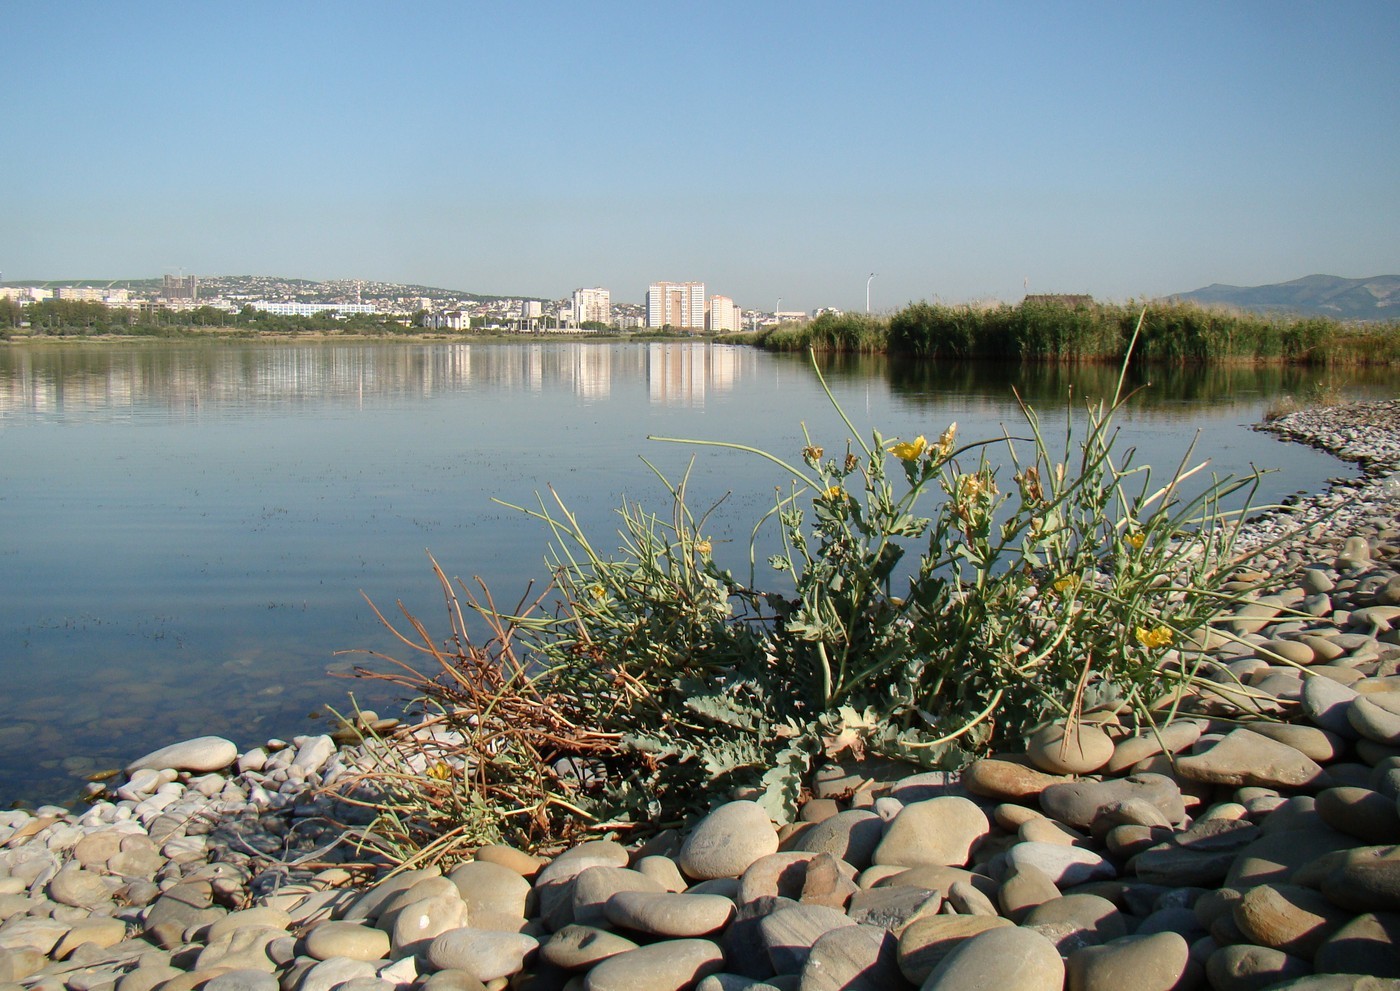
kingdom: Plantae
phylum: Tracheophyta
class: Magnoliopsida
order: Ranunculales
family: Papaveraceae
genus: Glaucium
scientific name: Glaucium flavum
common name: Yellow horned-poppy
